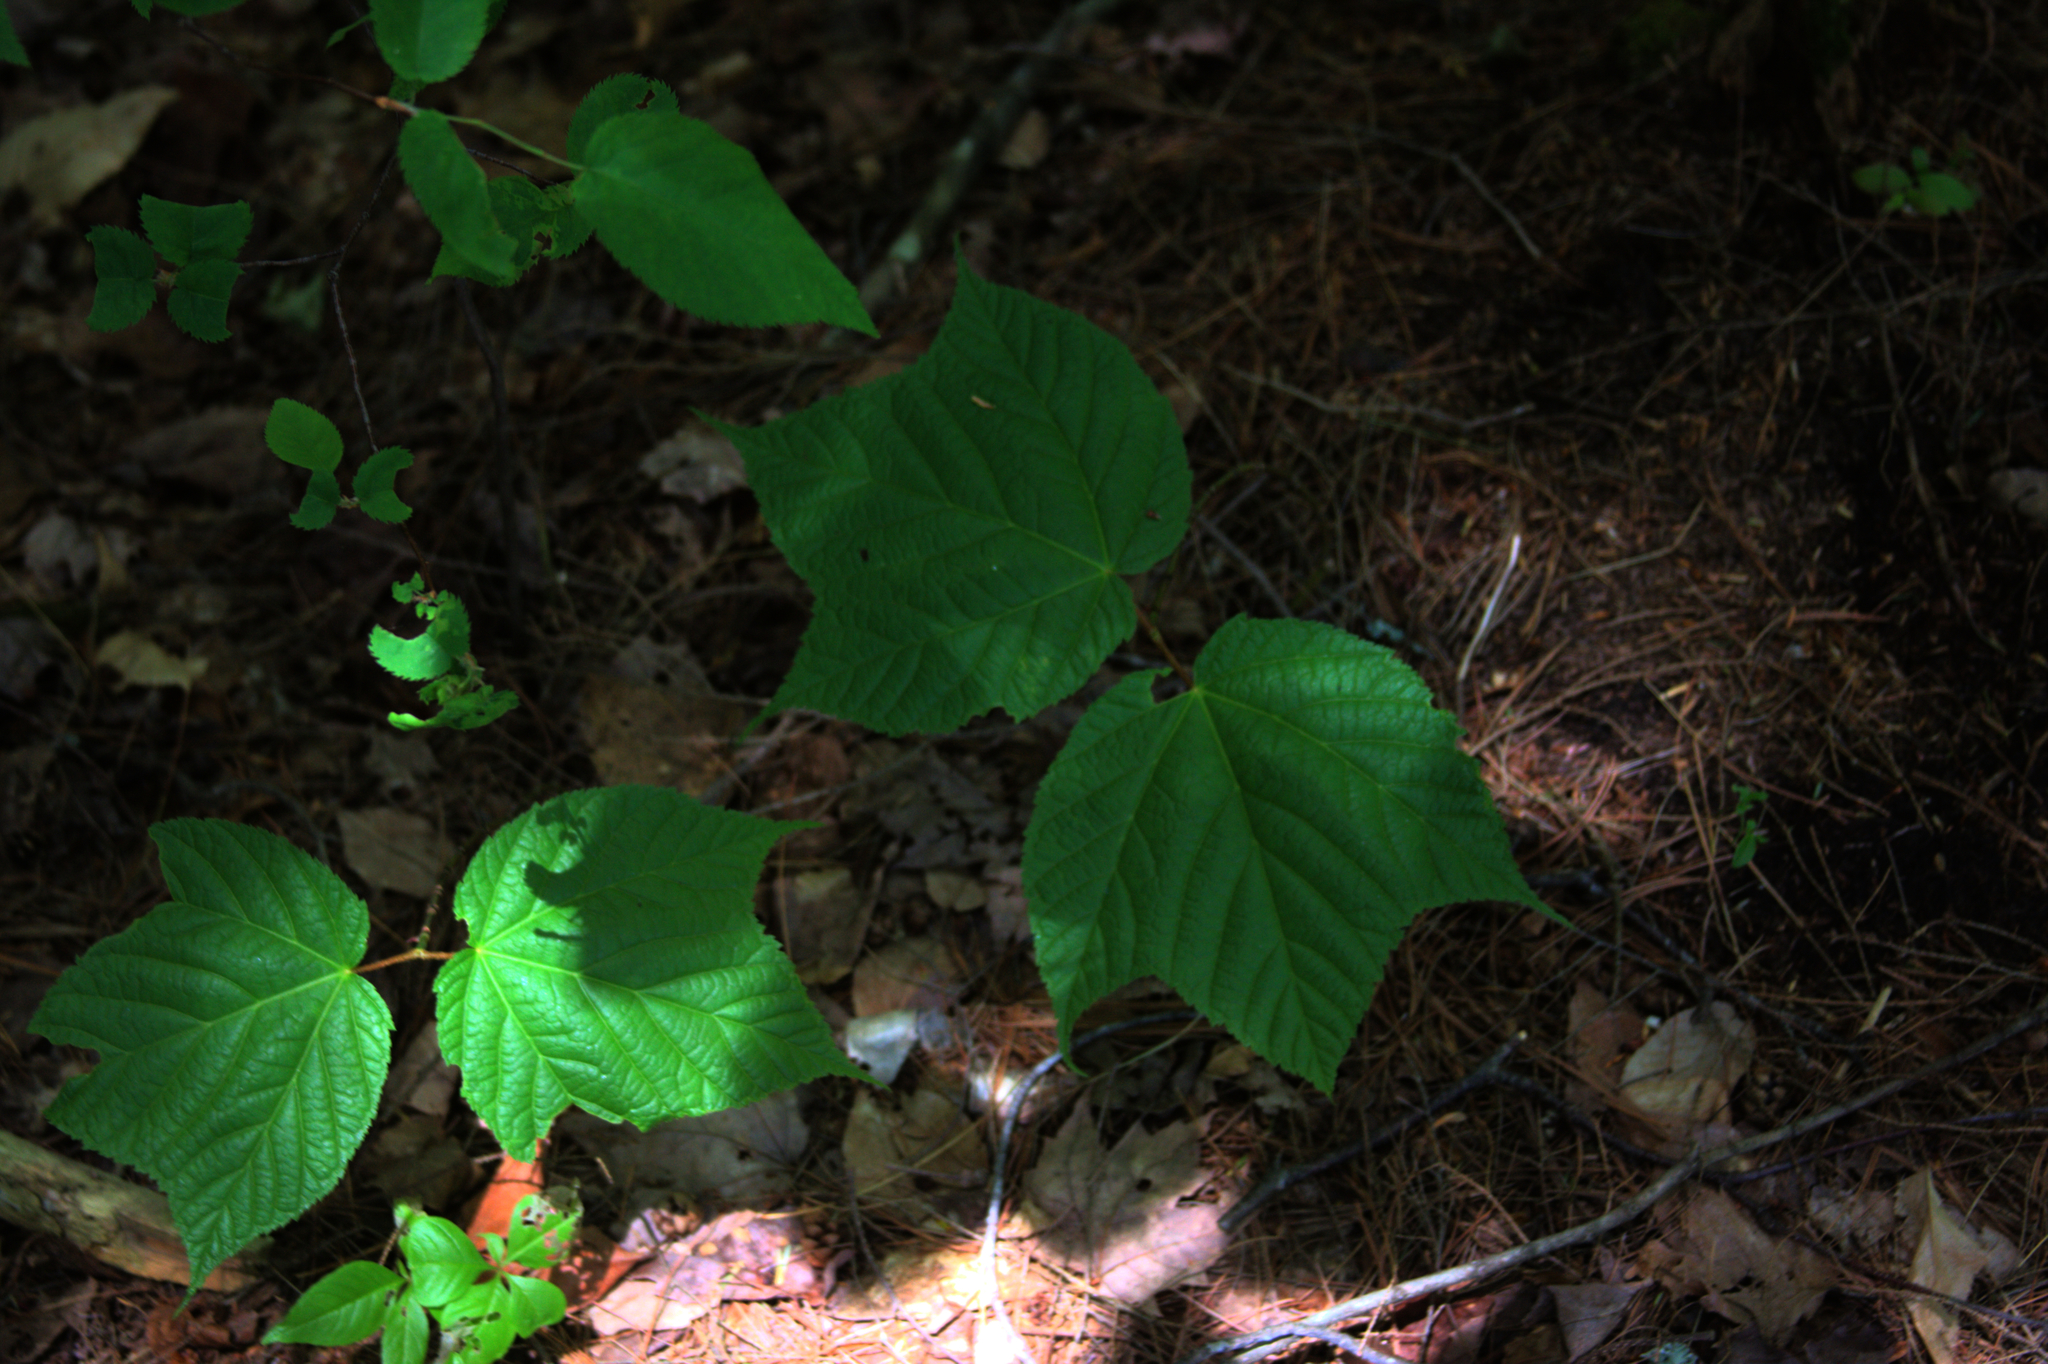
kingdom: Plantae
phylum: Tracheophyta
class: Magnoliopsida
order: Sapindales
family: Sapindaceae
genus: Acer
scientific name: Acer pensylvanicum
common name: Moosewood
